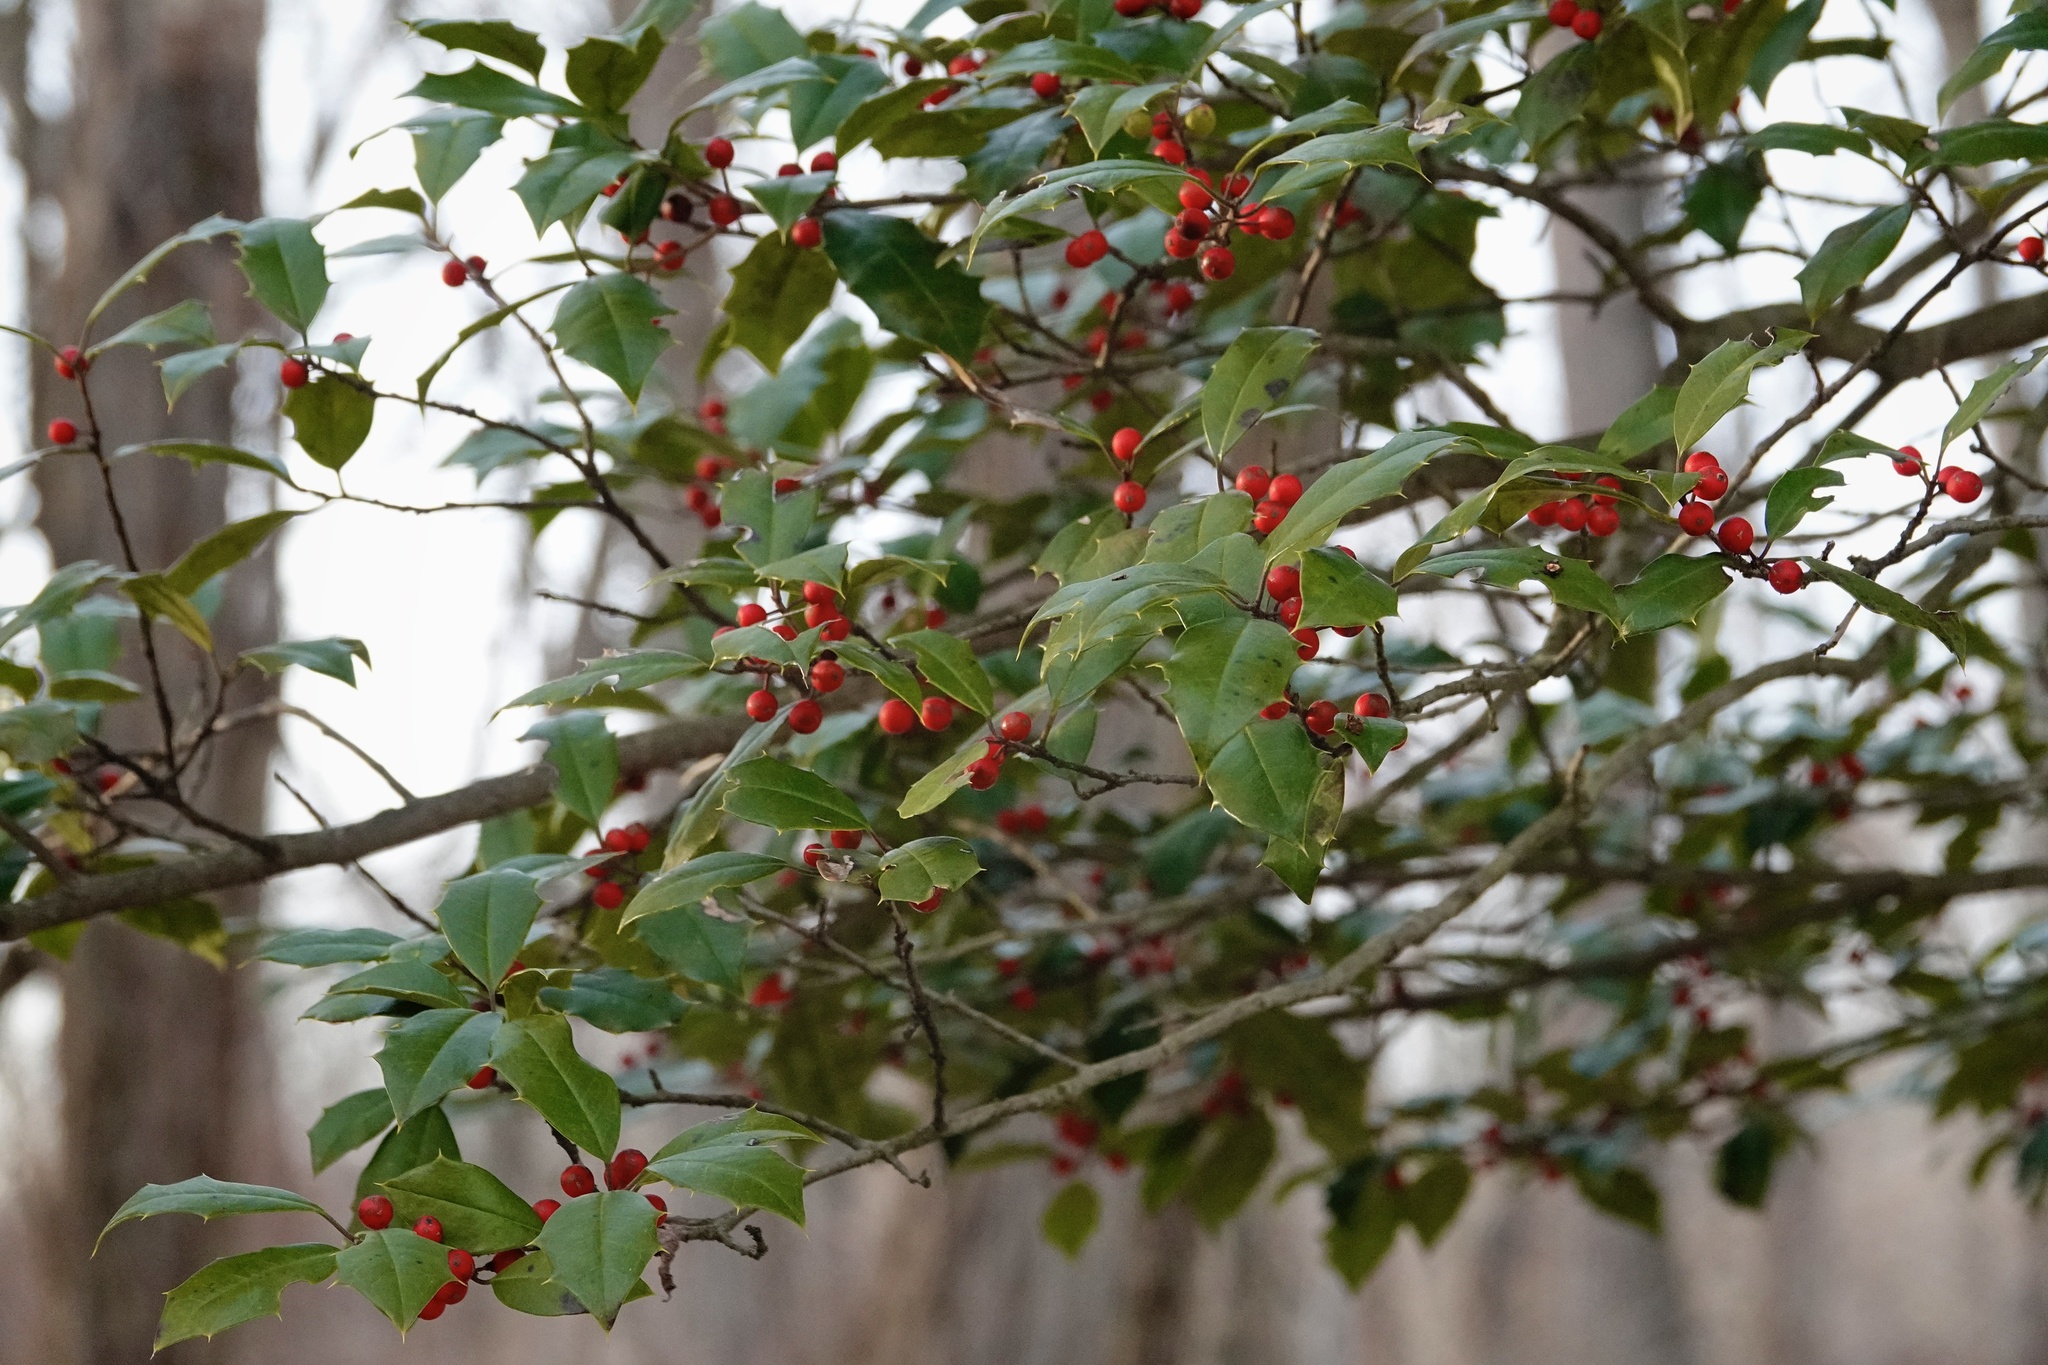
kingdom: Plantae
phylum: Tracheophyta
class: Magnoliopsida
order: Aquifoliales
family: Aquifoliaceae
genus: Ilex
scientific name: Ilex opaca
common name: American holly
